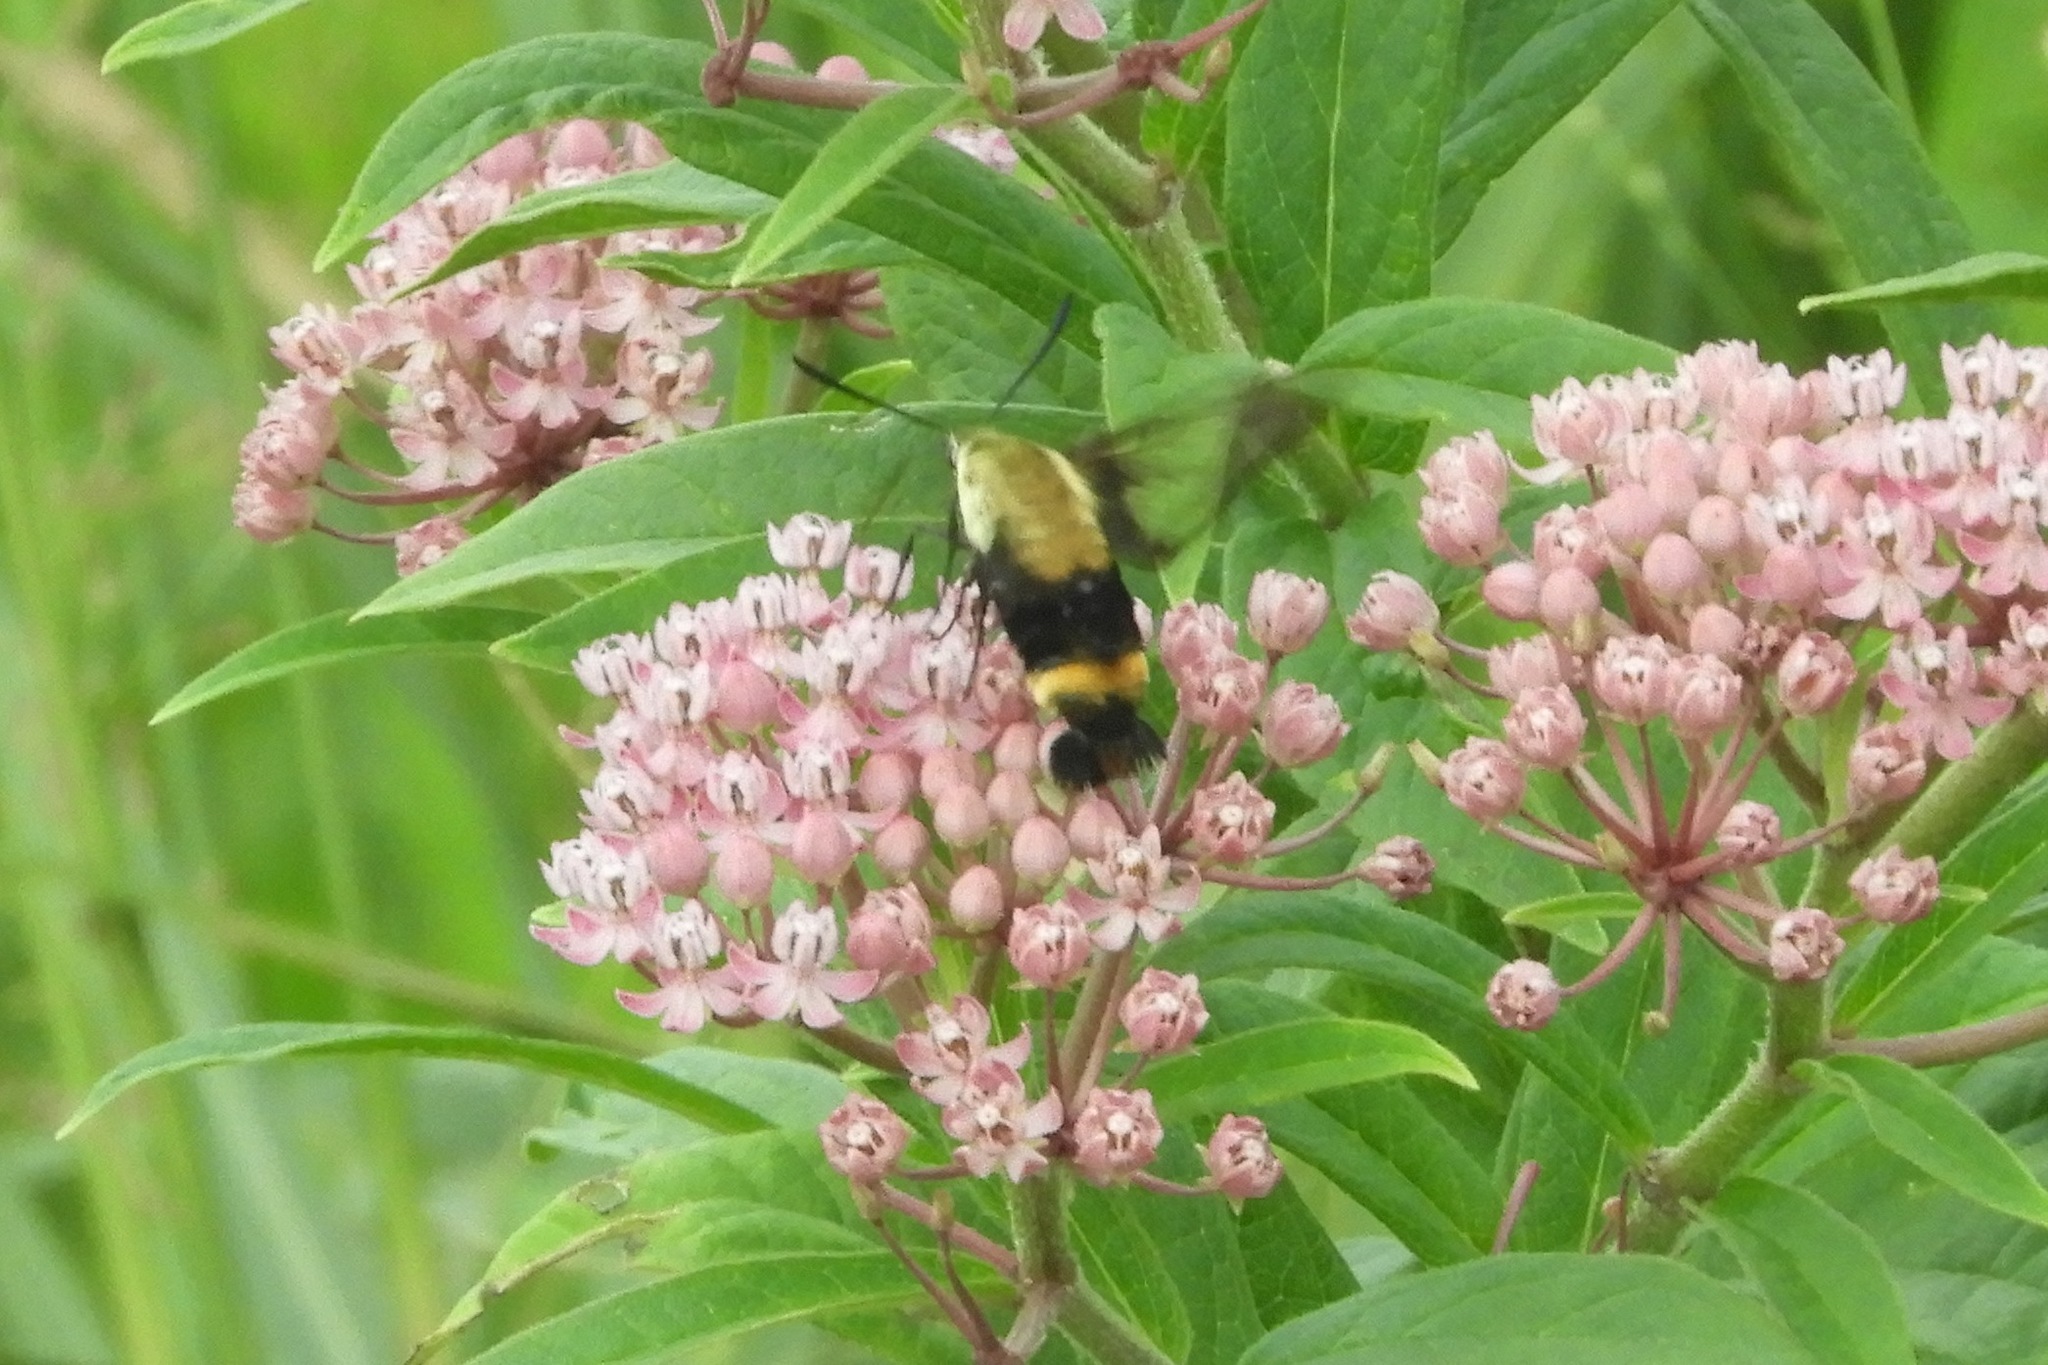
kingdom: Animalia
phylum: Arthropoda
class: Insecta
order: Lepidoptera
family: Sphingidae
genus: Hemaris
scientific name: Hemaris diffinis
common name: Bumblebee moth
